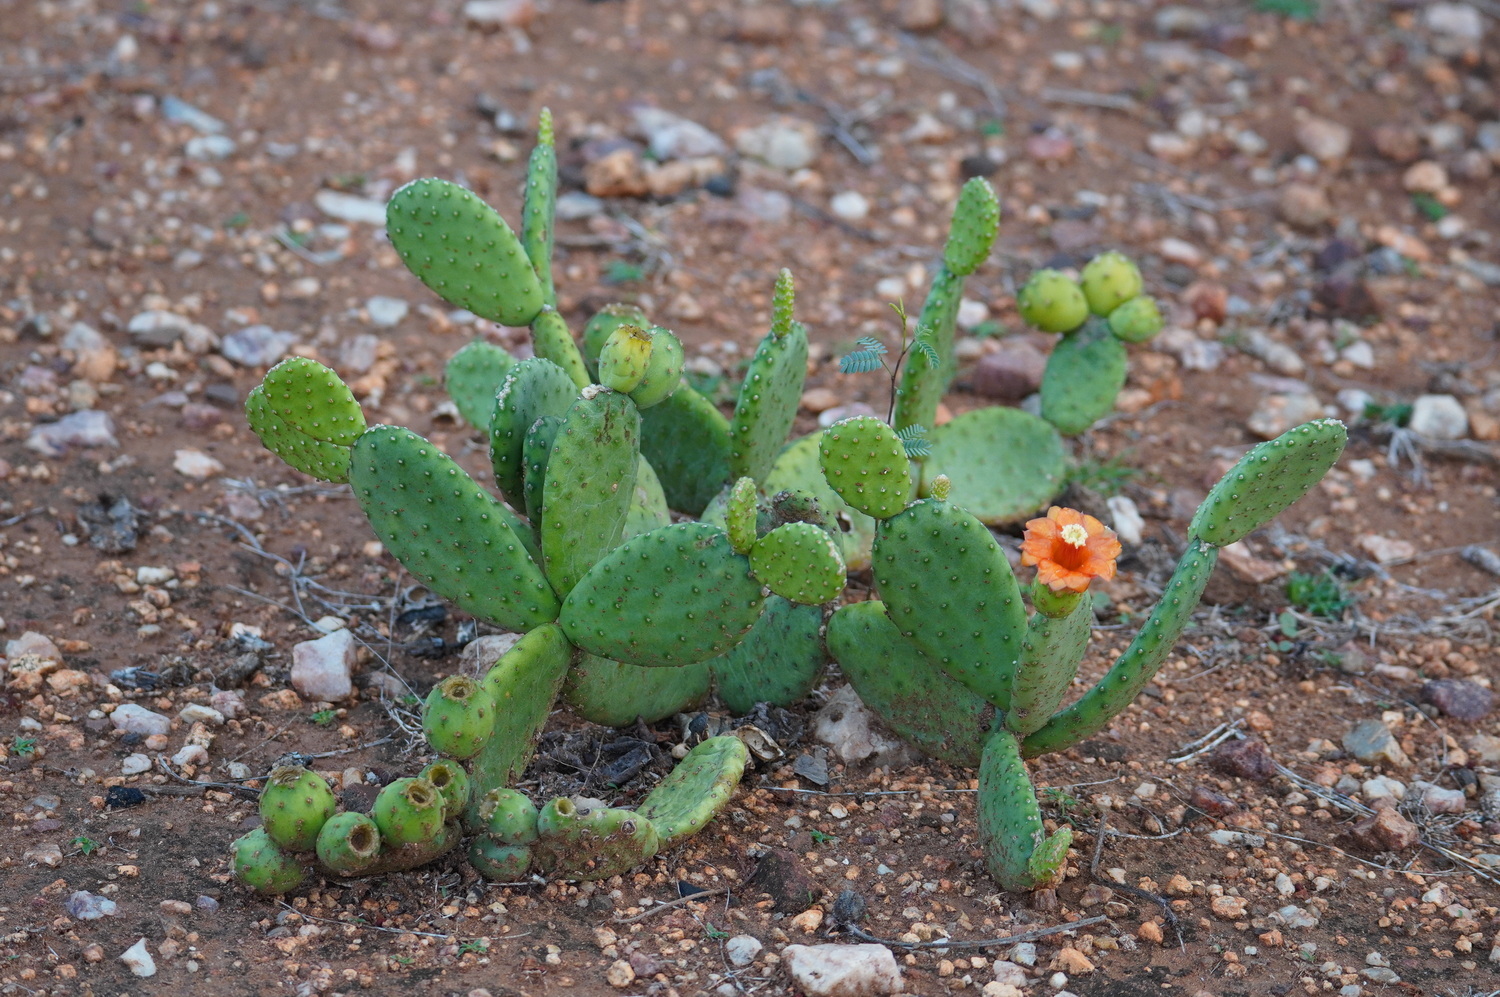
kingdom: Plantae
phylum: Tracheophyta
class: Magnoliopsida
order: Caryophyllales
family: Cactaceae
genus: Tacinga
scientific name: Tacinga inamoena
